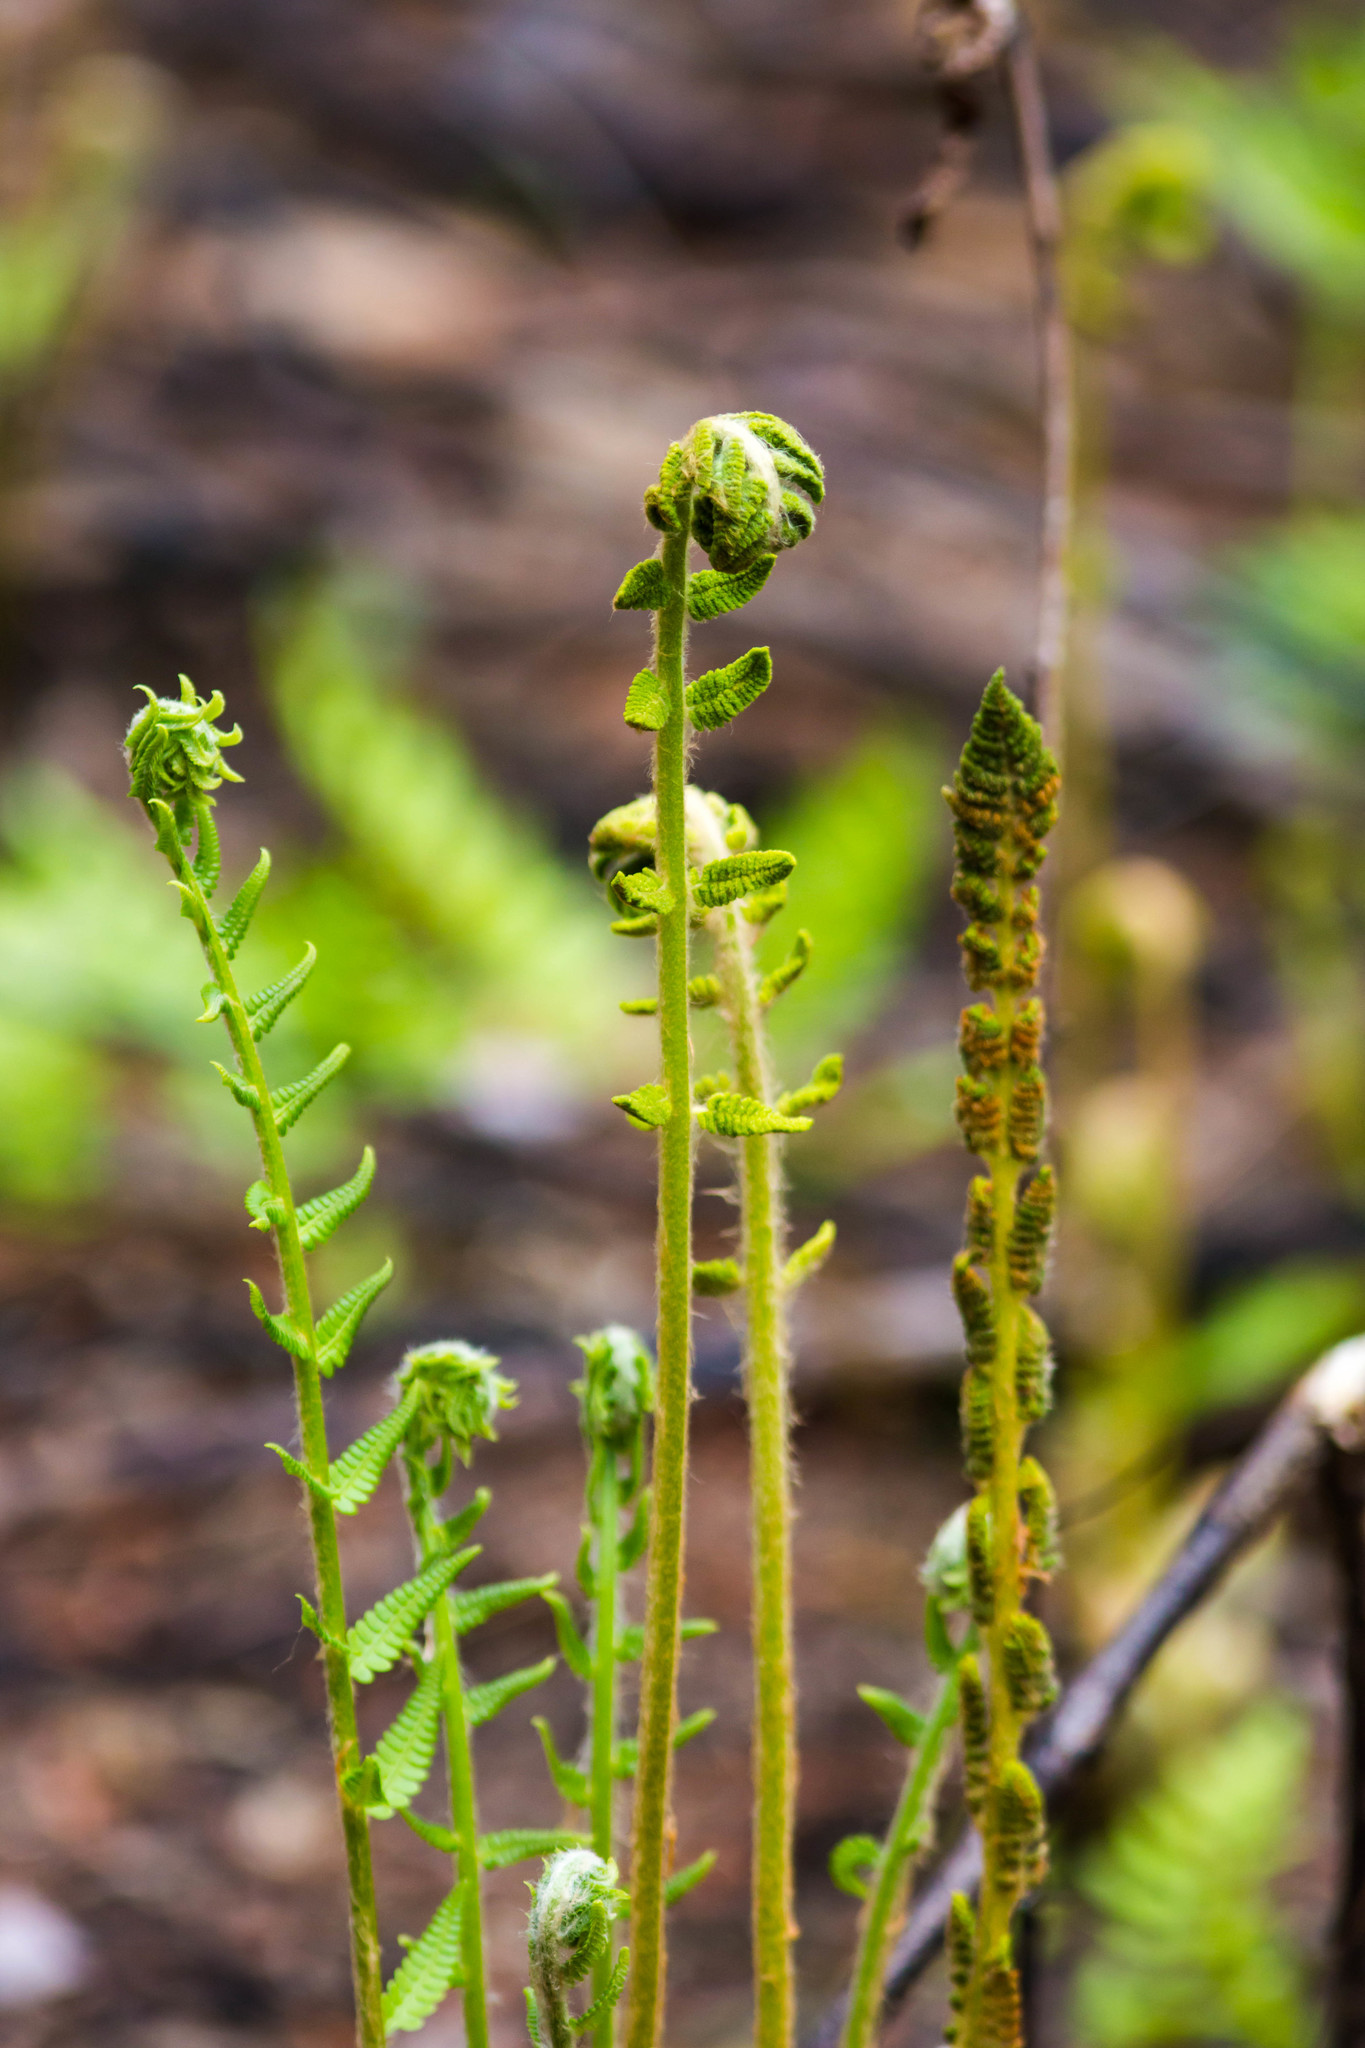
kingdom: Plantae
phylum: Tracheophyta
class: Polypodiopsida
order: Osmundales
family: Osmundaceae
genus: Osmundastrum
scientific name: Osmundastrum cinnamomeum
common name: Cinnamon fern
